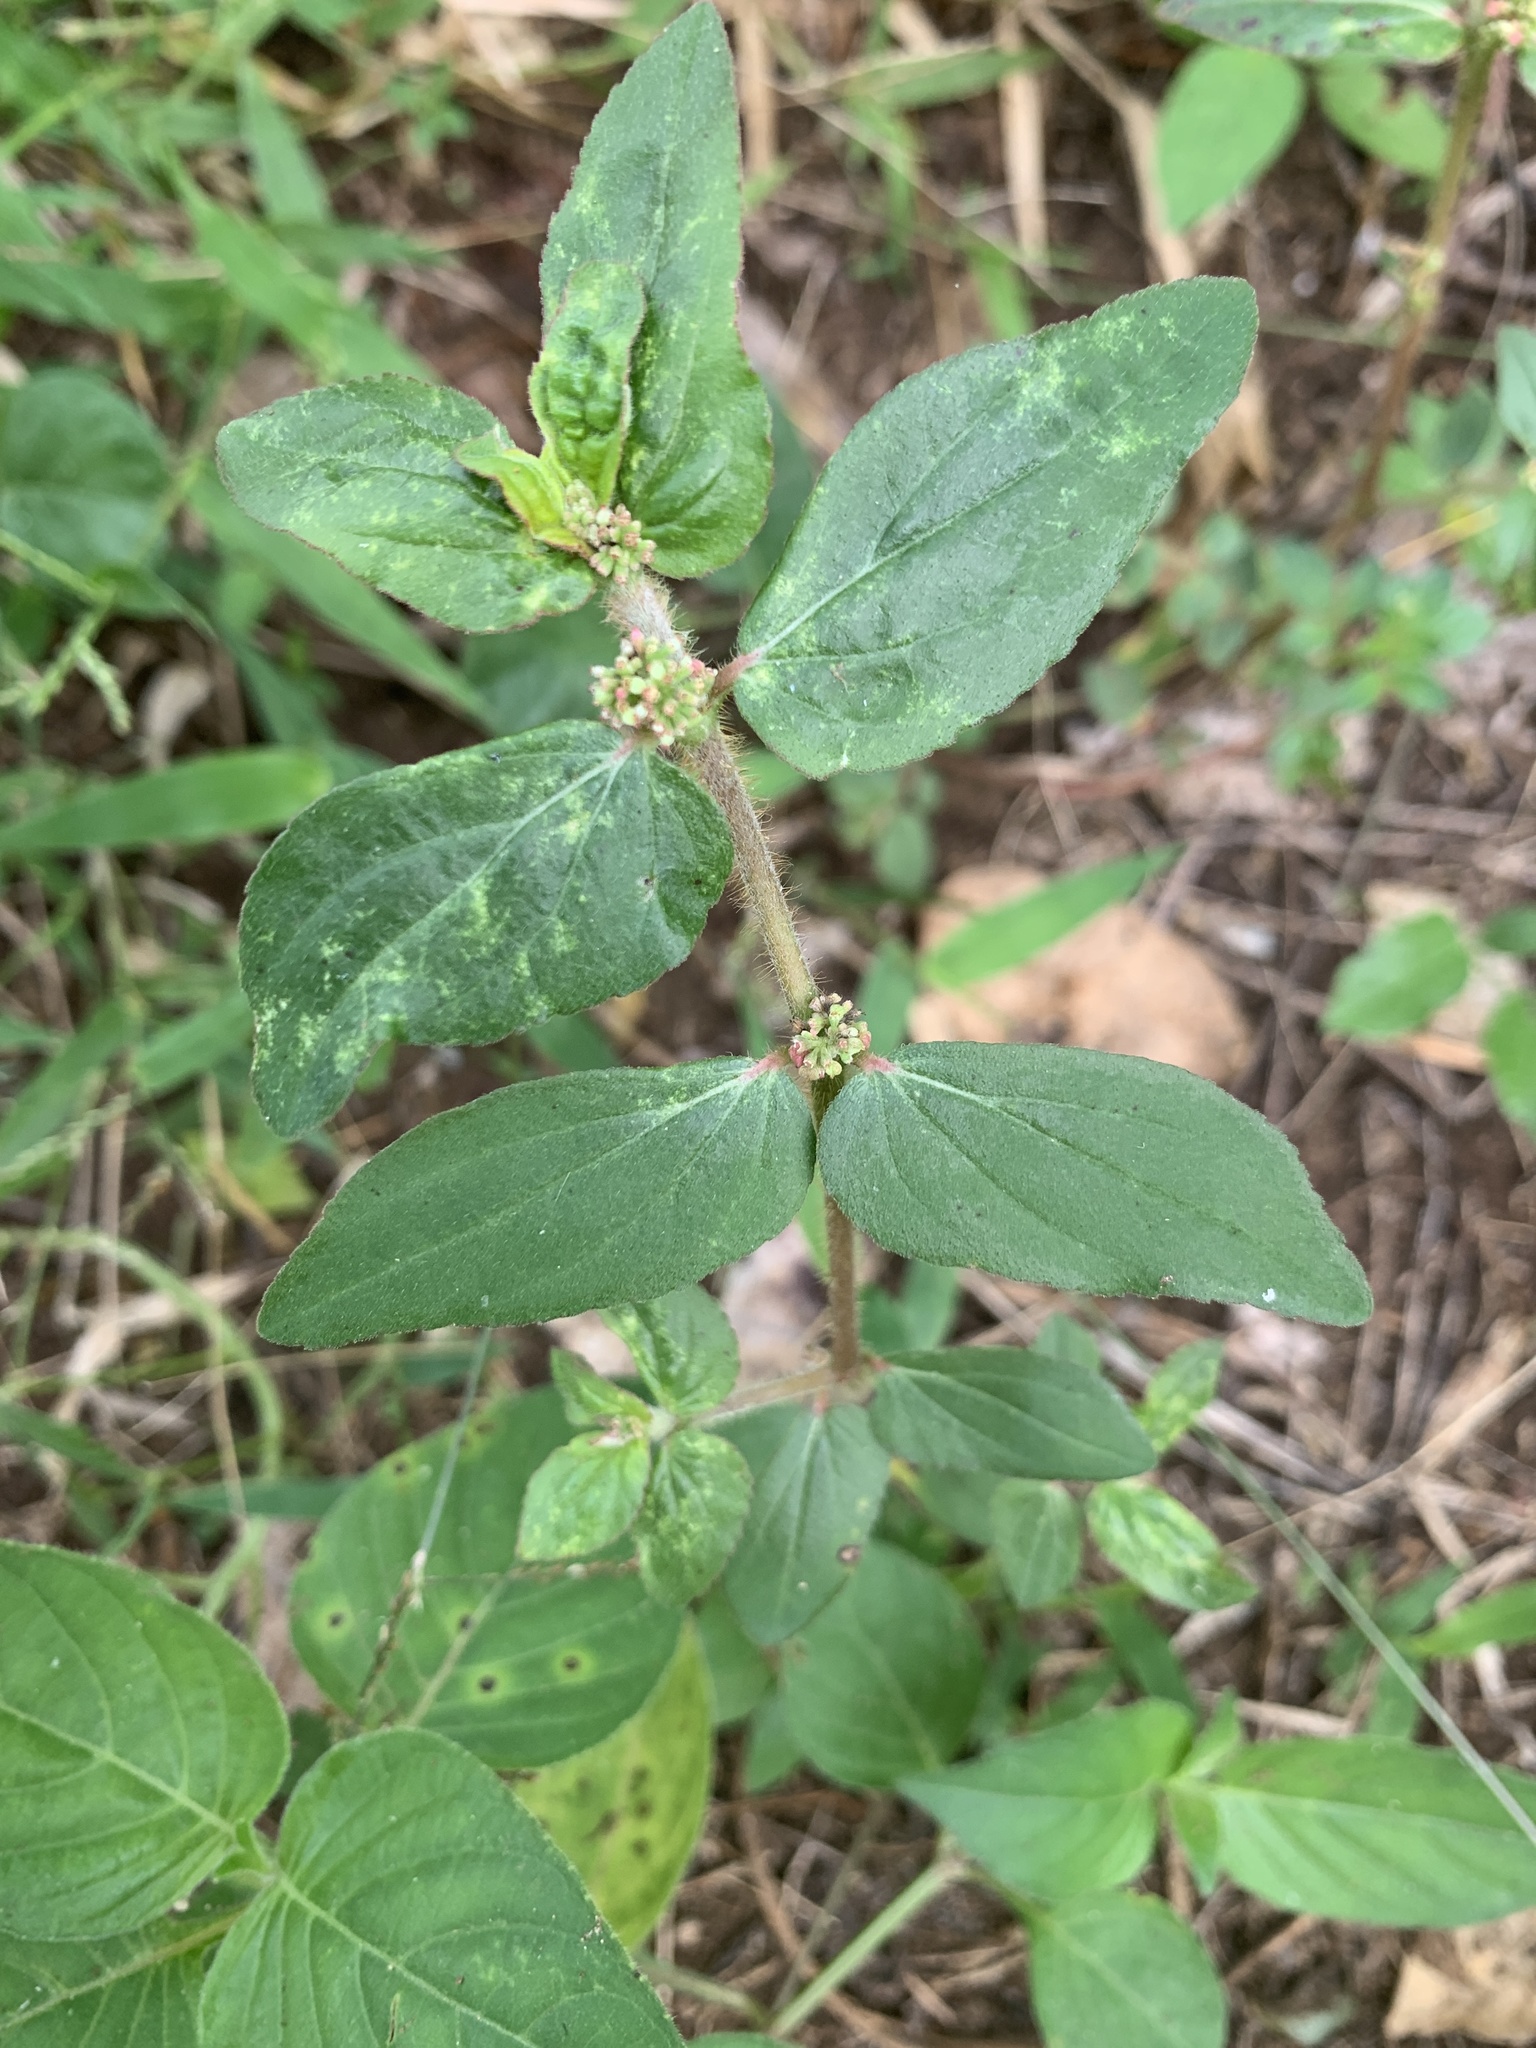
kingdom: Plantae
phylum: Tracheophyta
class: Magnoliopsida
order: Malpighiales
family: Euphorbiaceae
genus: Euphorbia
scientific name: Euphorbia hirta
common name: Pillpod sandmat
